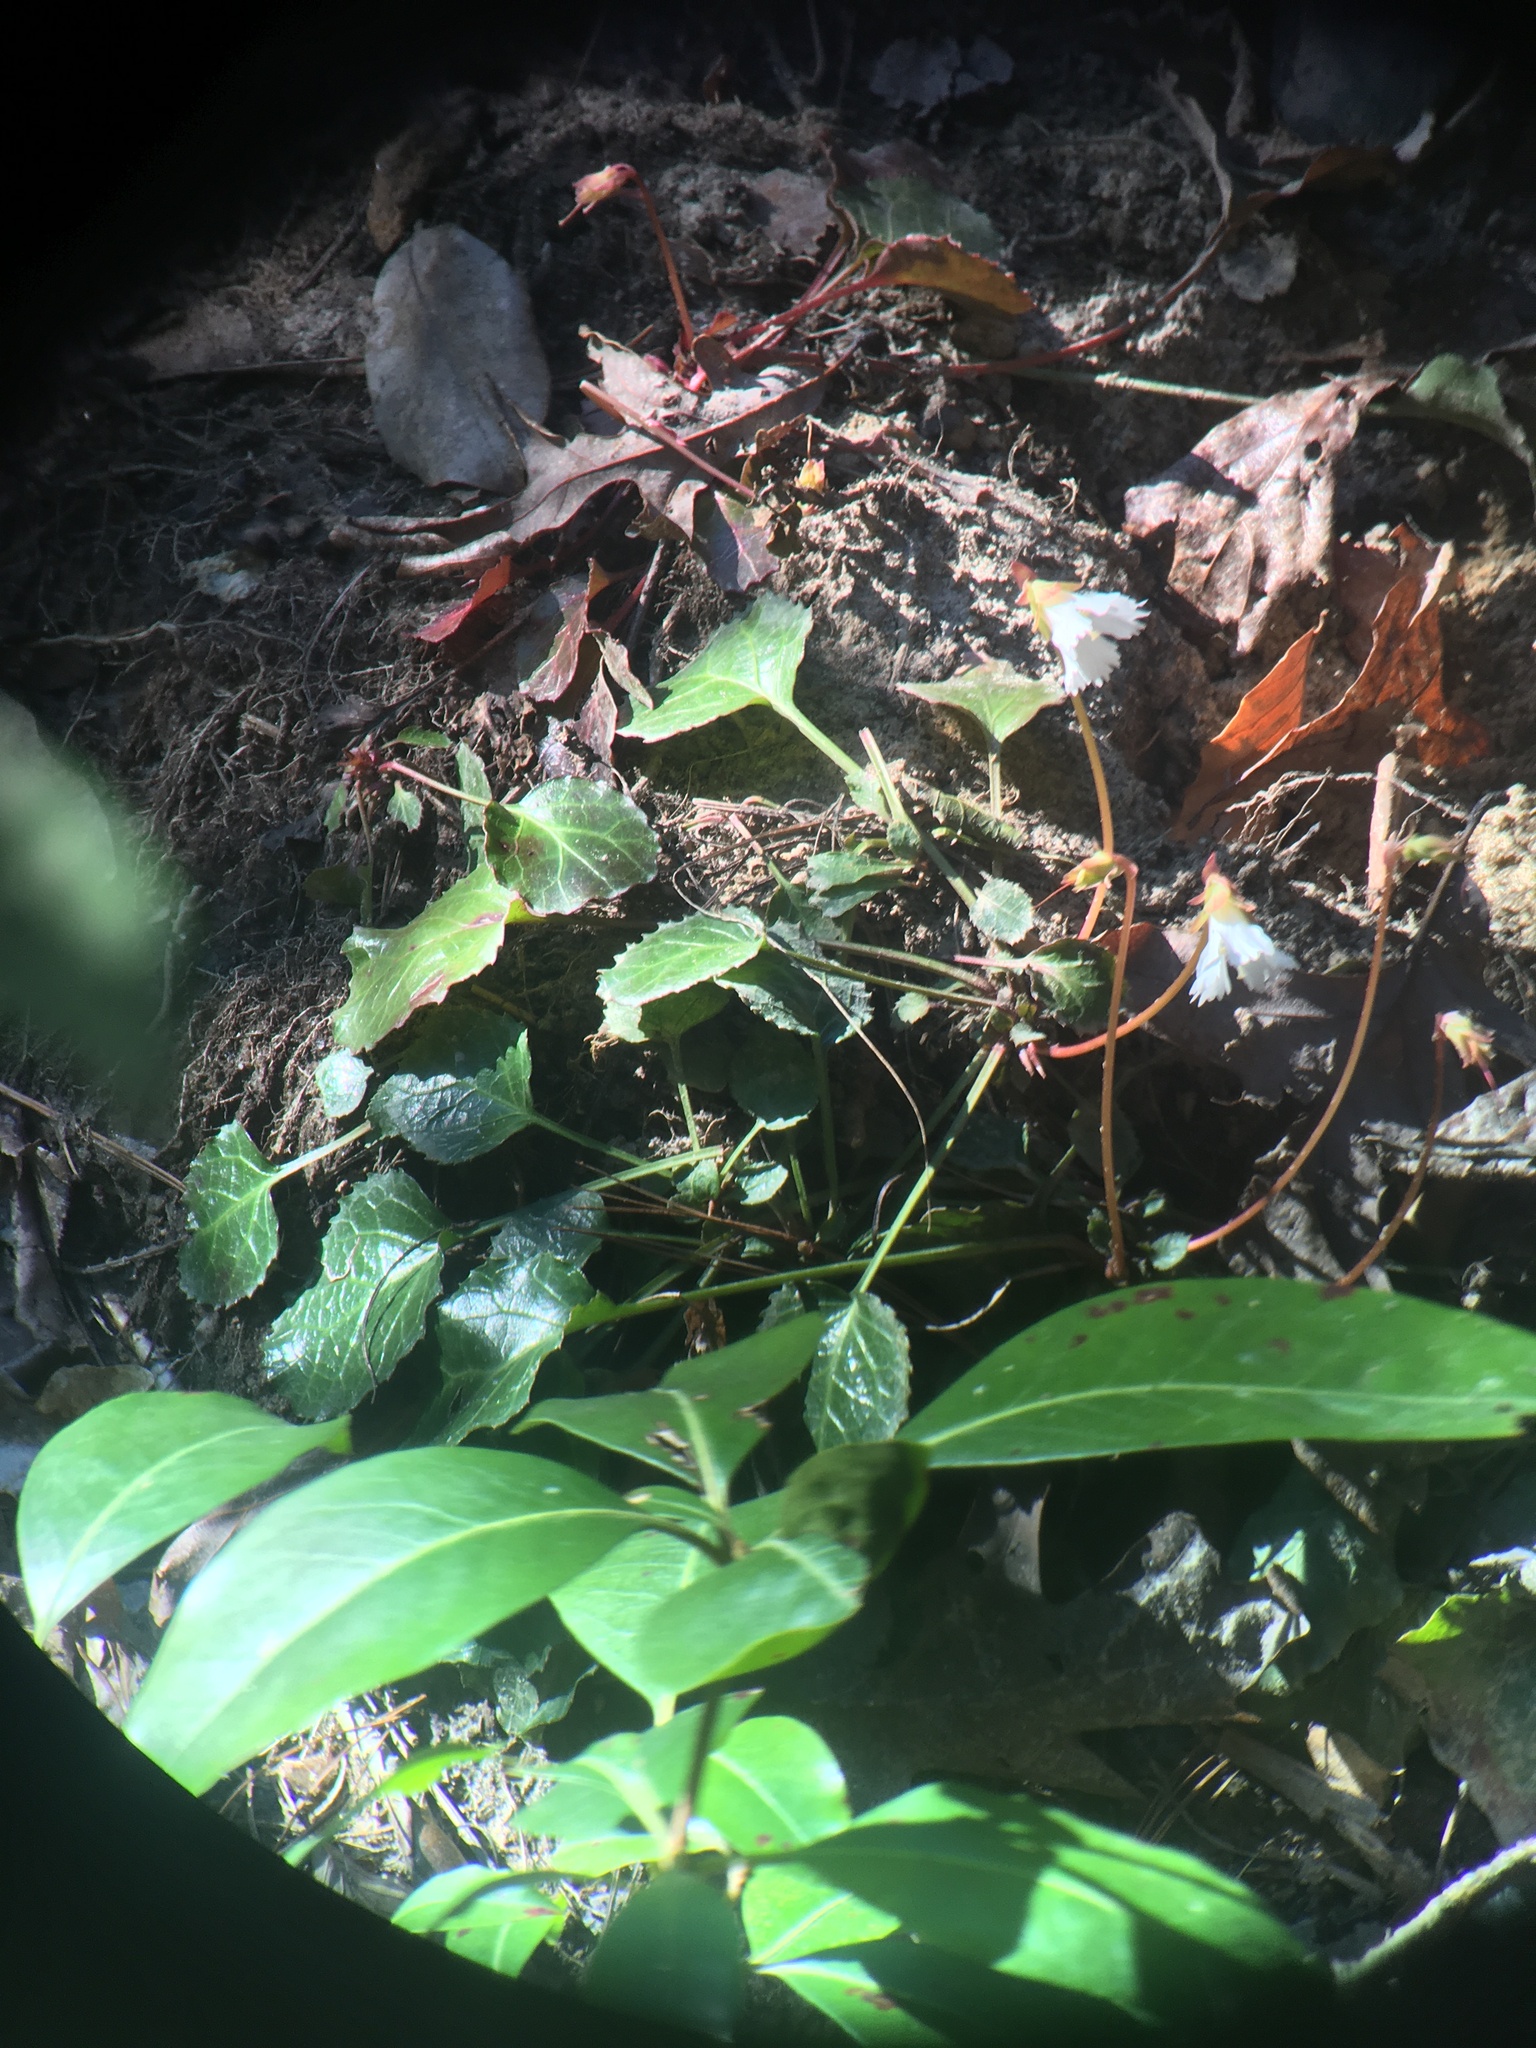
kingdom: Plantae
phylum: Tracheophyta
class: Magnoliopsida
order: Ericales
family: Diapensiaceae
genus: Shortia
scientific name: Shortia galacifolia
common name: Shortia
